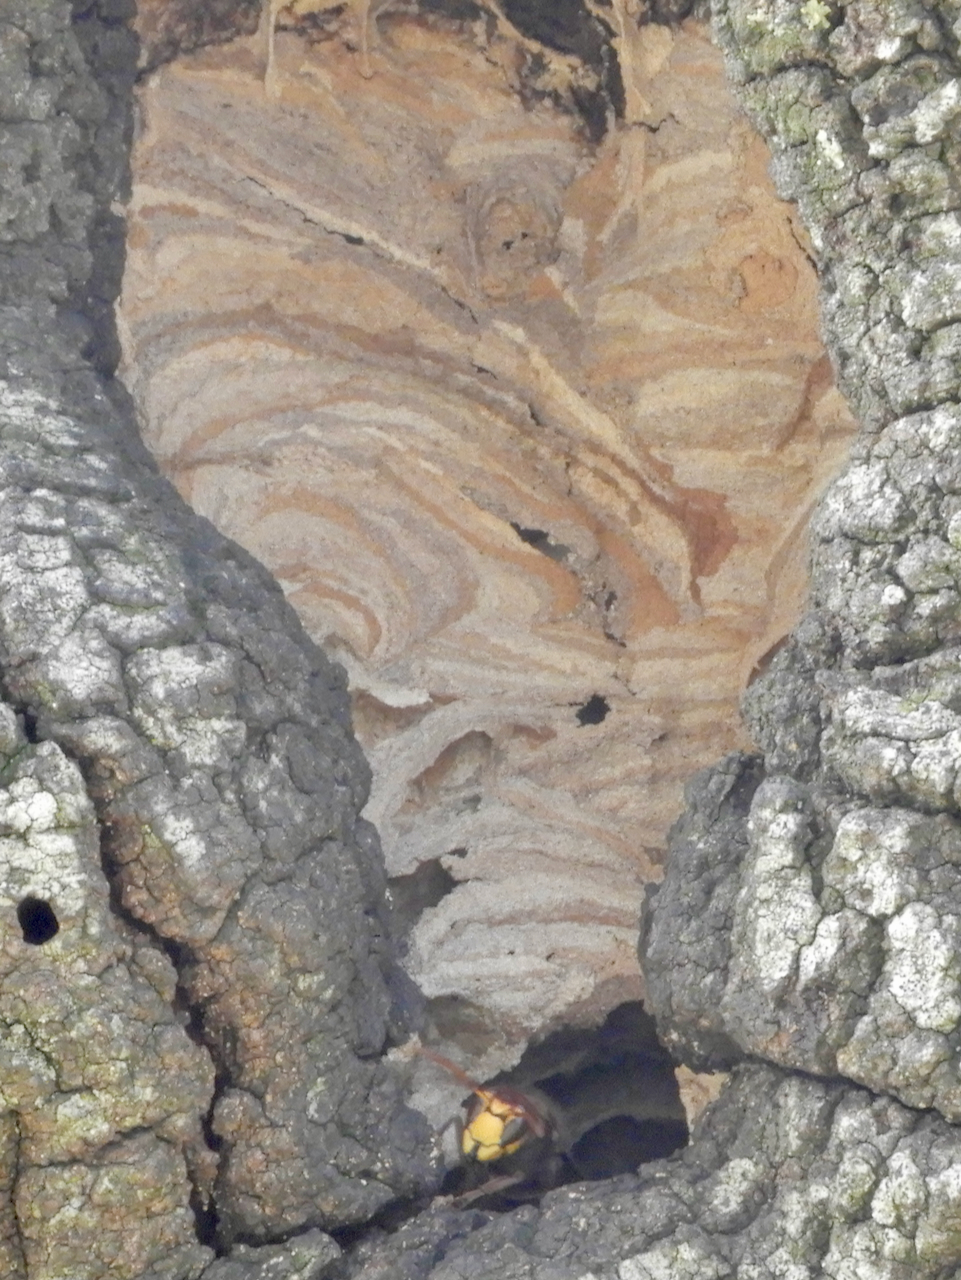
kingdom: Animalia
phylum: Arthropoda
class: Insecta
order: Hymenoptera
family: Vespidae
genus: Vespa
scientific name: Vespa crabro
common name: Hornet
